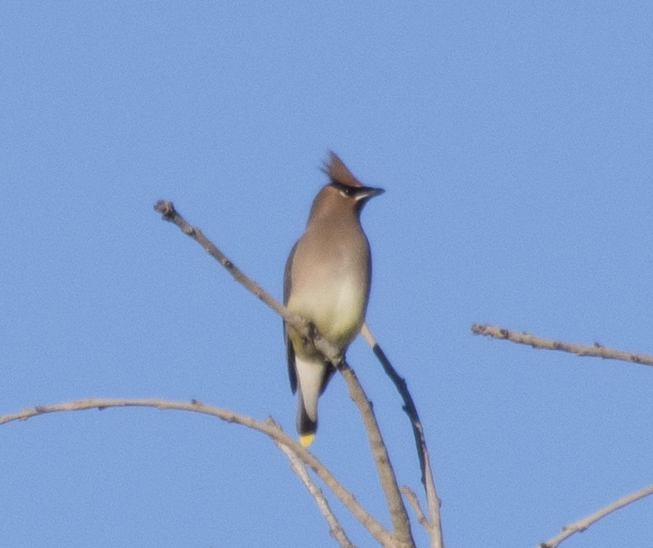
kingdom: Animalia
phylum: Chordata
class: Aves
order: Passeriformes
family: Bombycillidae
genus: Bombycilla
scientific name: Bombycilla cedrorum
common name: Cedar waxwing
